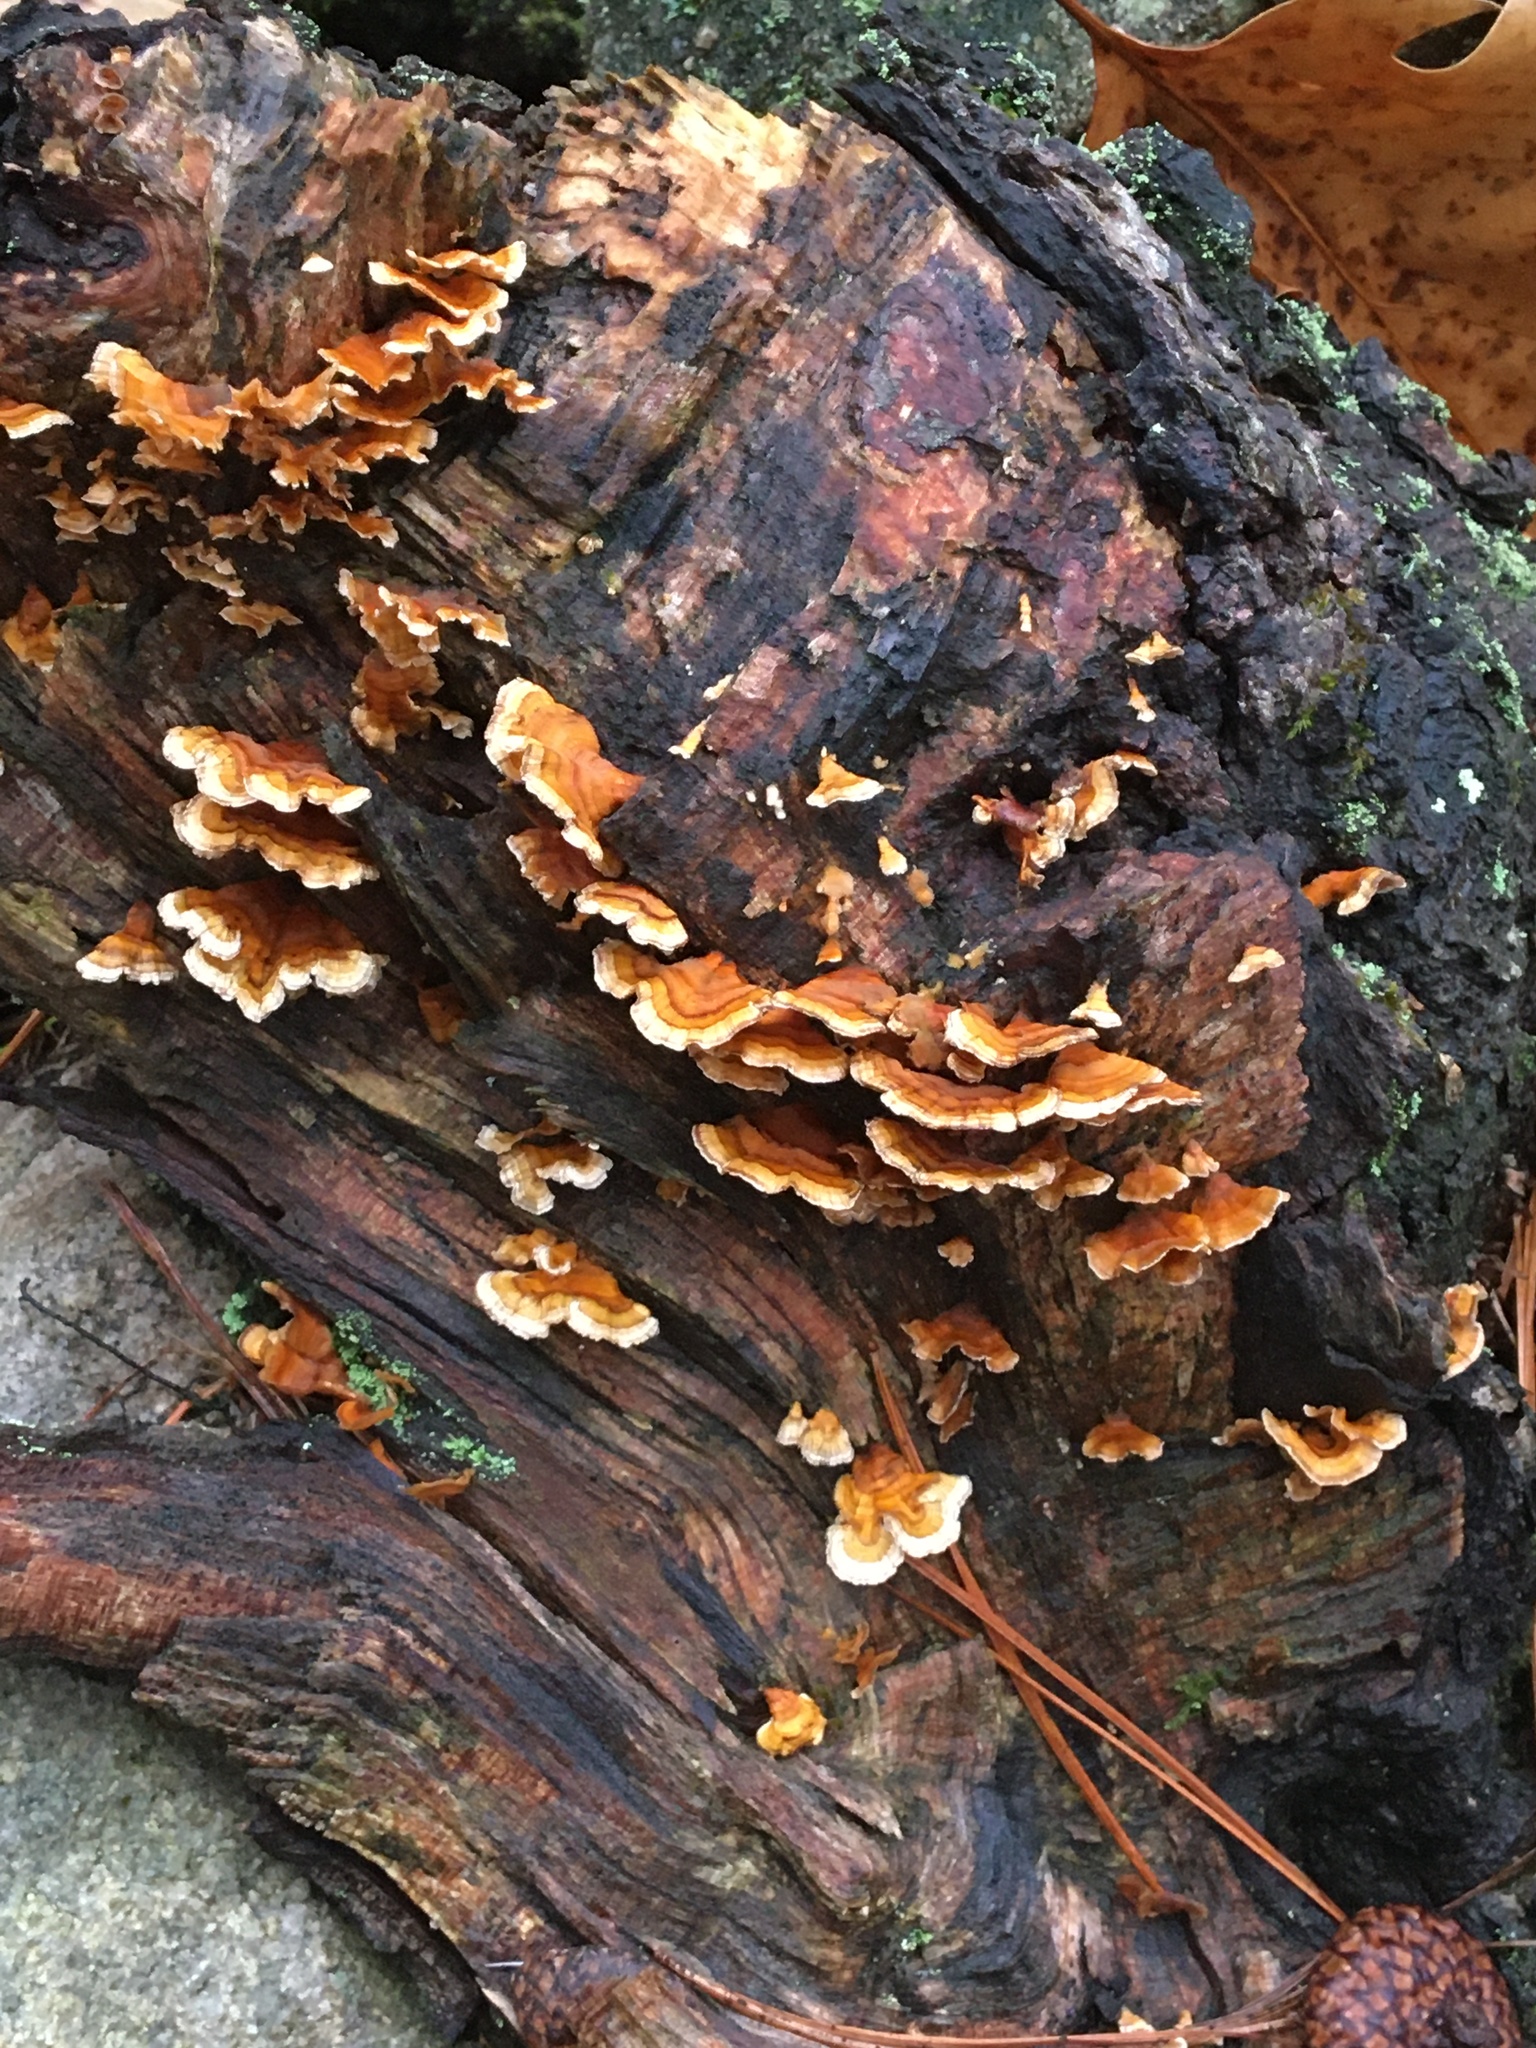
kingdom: Fungi
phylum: Basidiomycota
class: Agaricomycetes
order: Russulales
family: Stereaceae
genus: Stereum
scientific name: Stereum complicatum
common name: Crowded parchment
